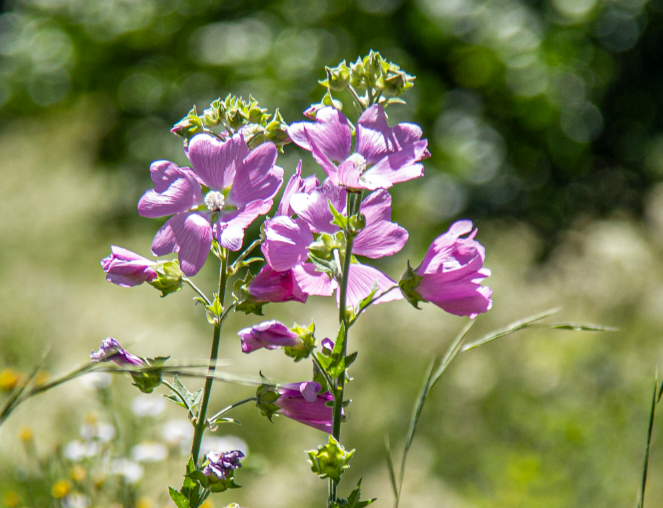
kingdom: Plantae
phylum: Tracheophyta
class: Magnoliopsida
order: Malvales
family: Malvaceae
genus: Malva
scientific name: Malva thuringiaca
